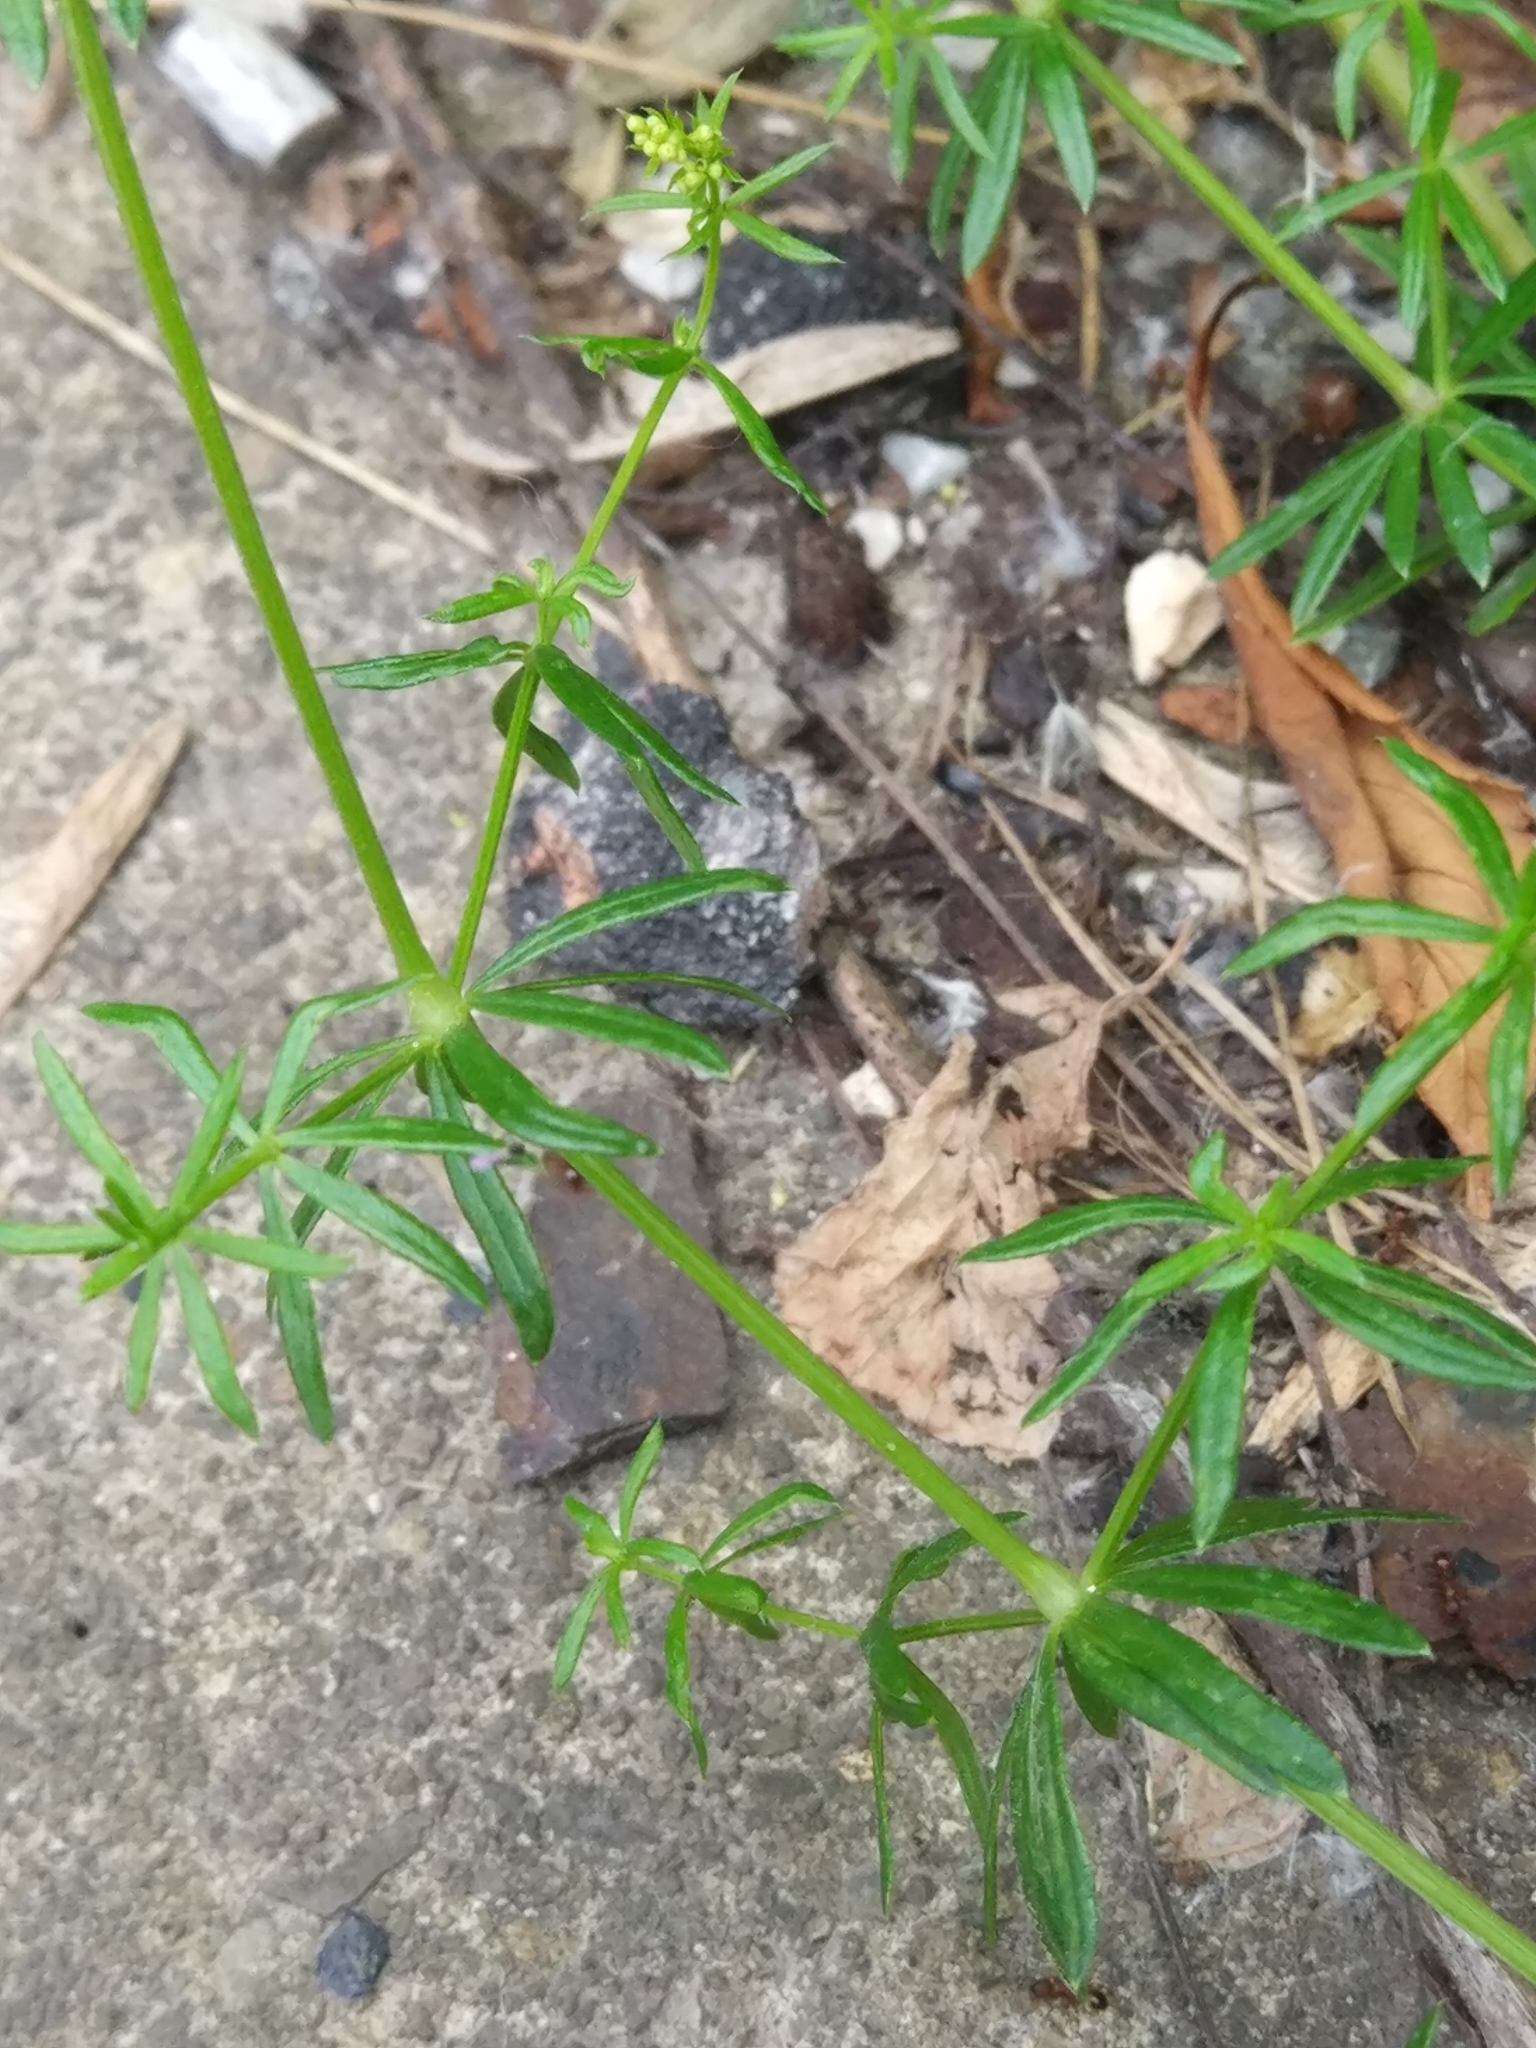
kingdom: Plantae
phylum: Tracheophyta
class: Magnoliopsida
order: Gentianales
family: Rubiaceae
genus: Galium
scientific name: Galium mollugo
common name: Hedge bedstraw
